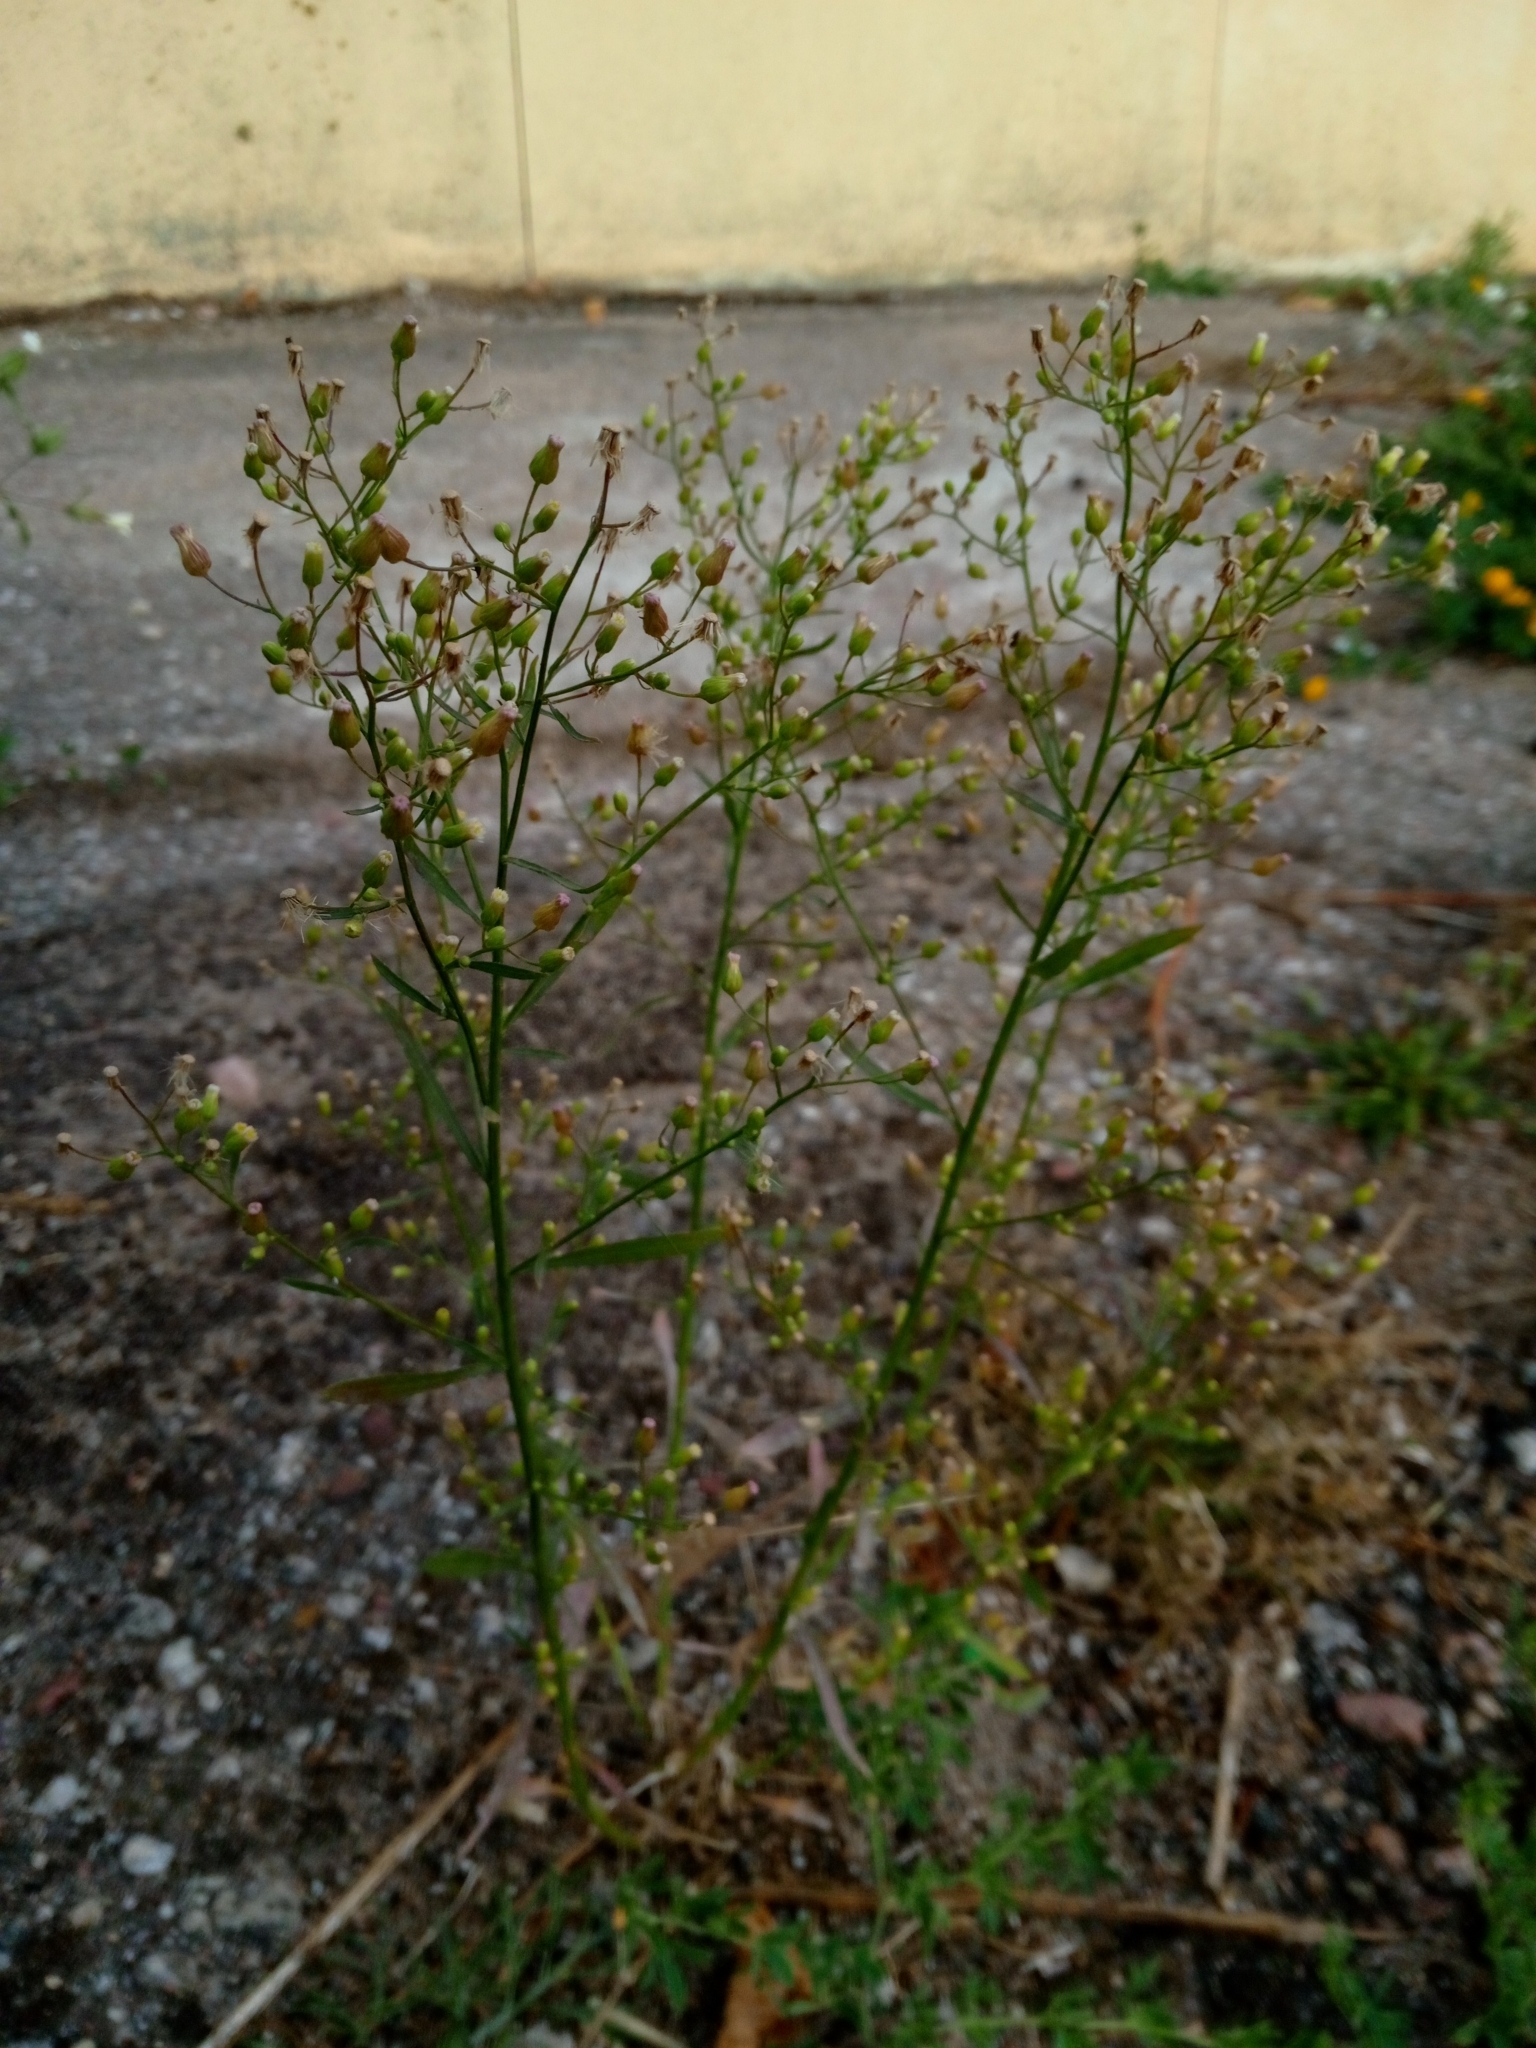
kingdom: Plantae
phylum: Tracheophyta
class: Magnoliopsida
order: Asterales
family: Asteraceae
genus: Erigeron
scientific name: Erigeron canadensis
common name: Canadian fleabane
